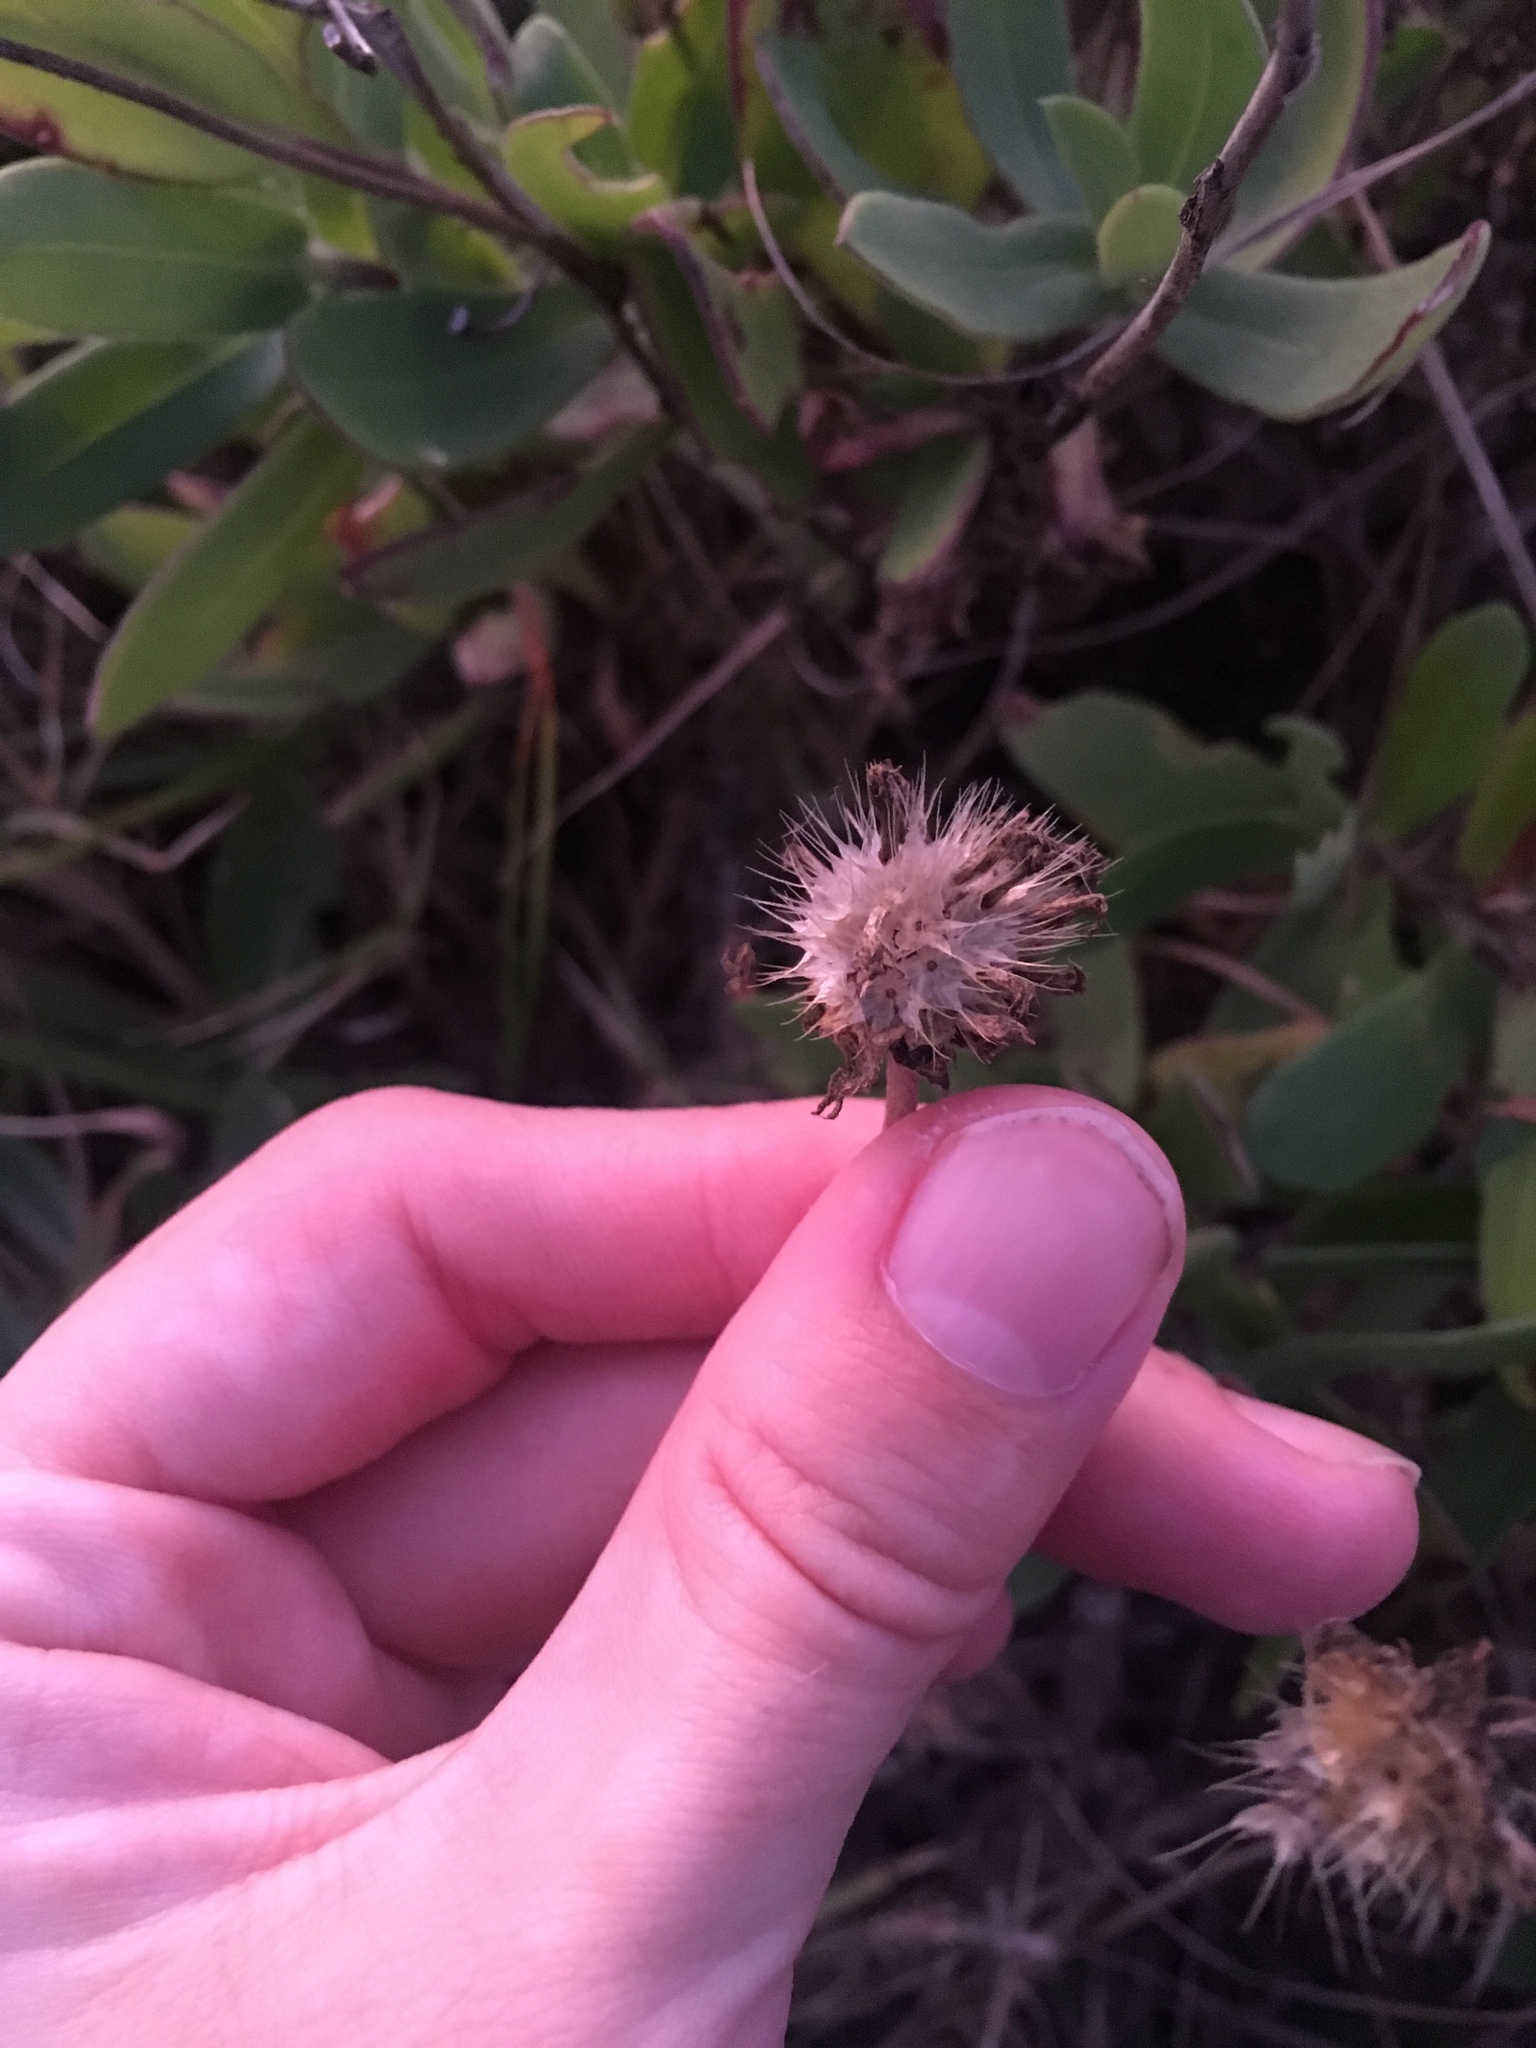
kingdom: Plantae
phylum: Tracheophyta
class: Magnoliopsida
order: Asterales
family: Asteraceae
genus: Gaillardia
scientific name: Gaillardia pulchella
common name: Firewheel
